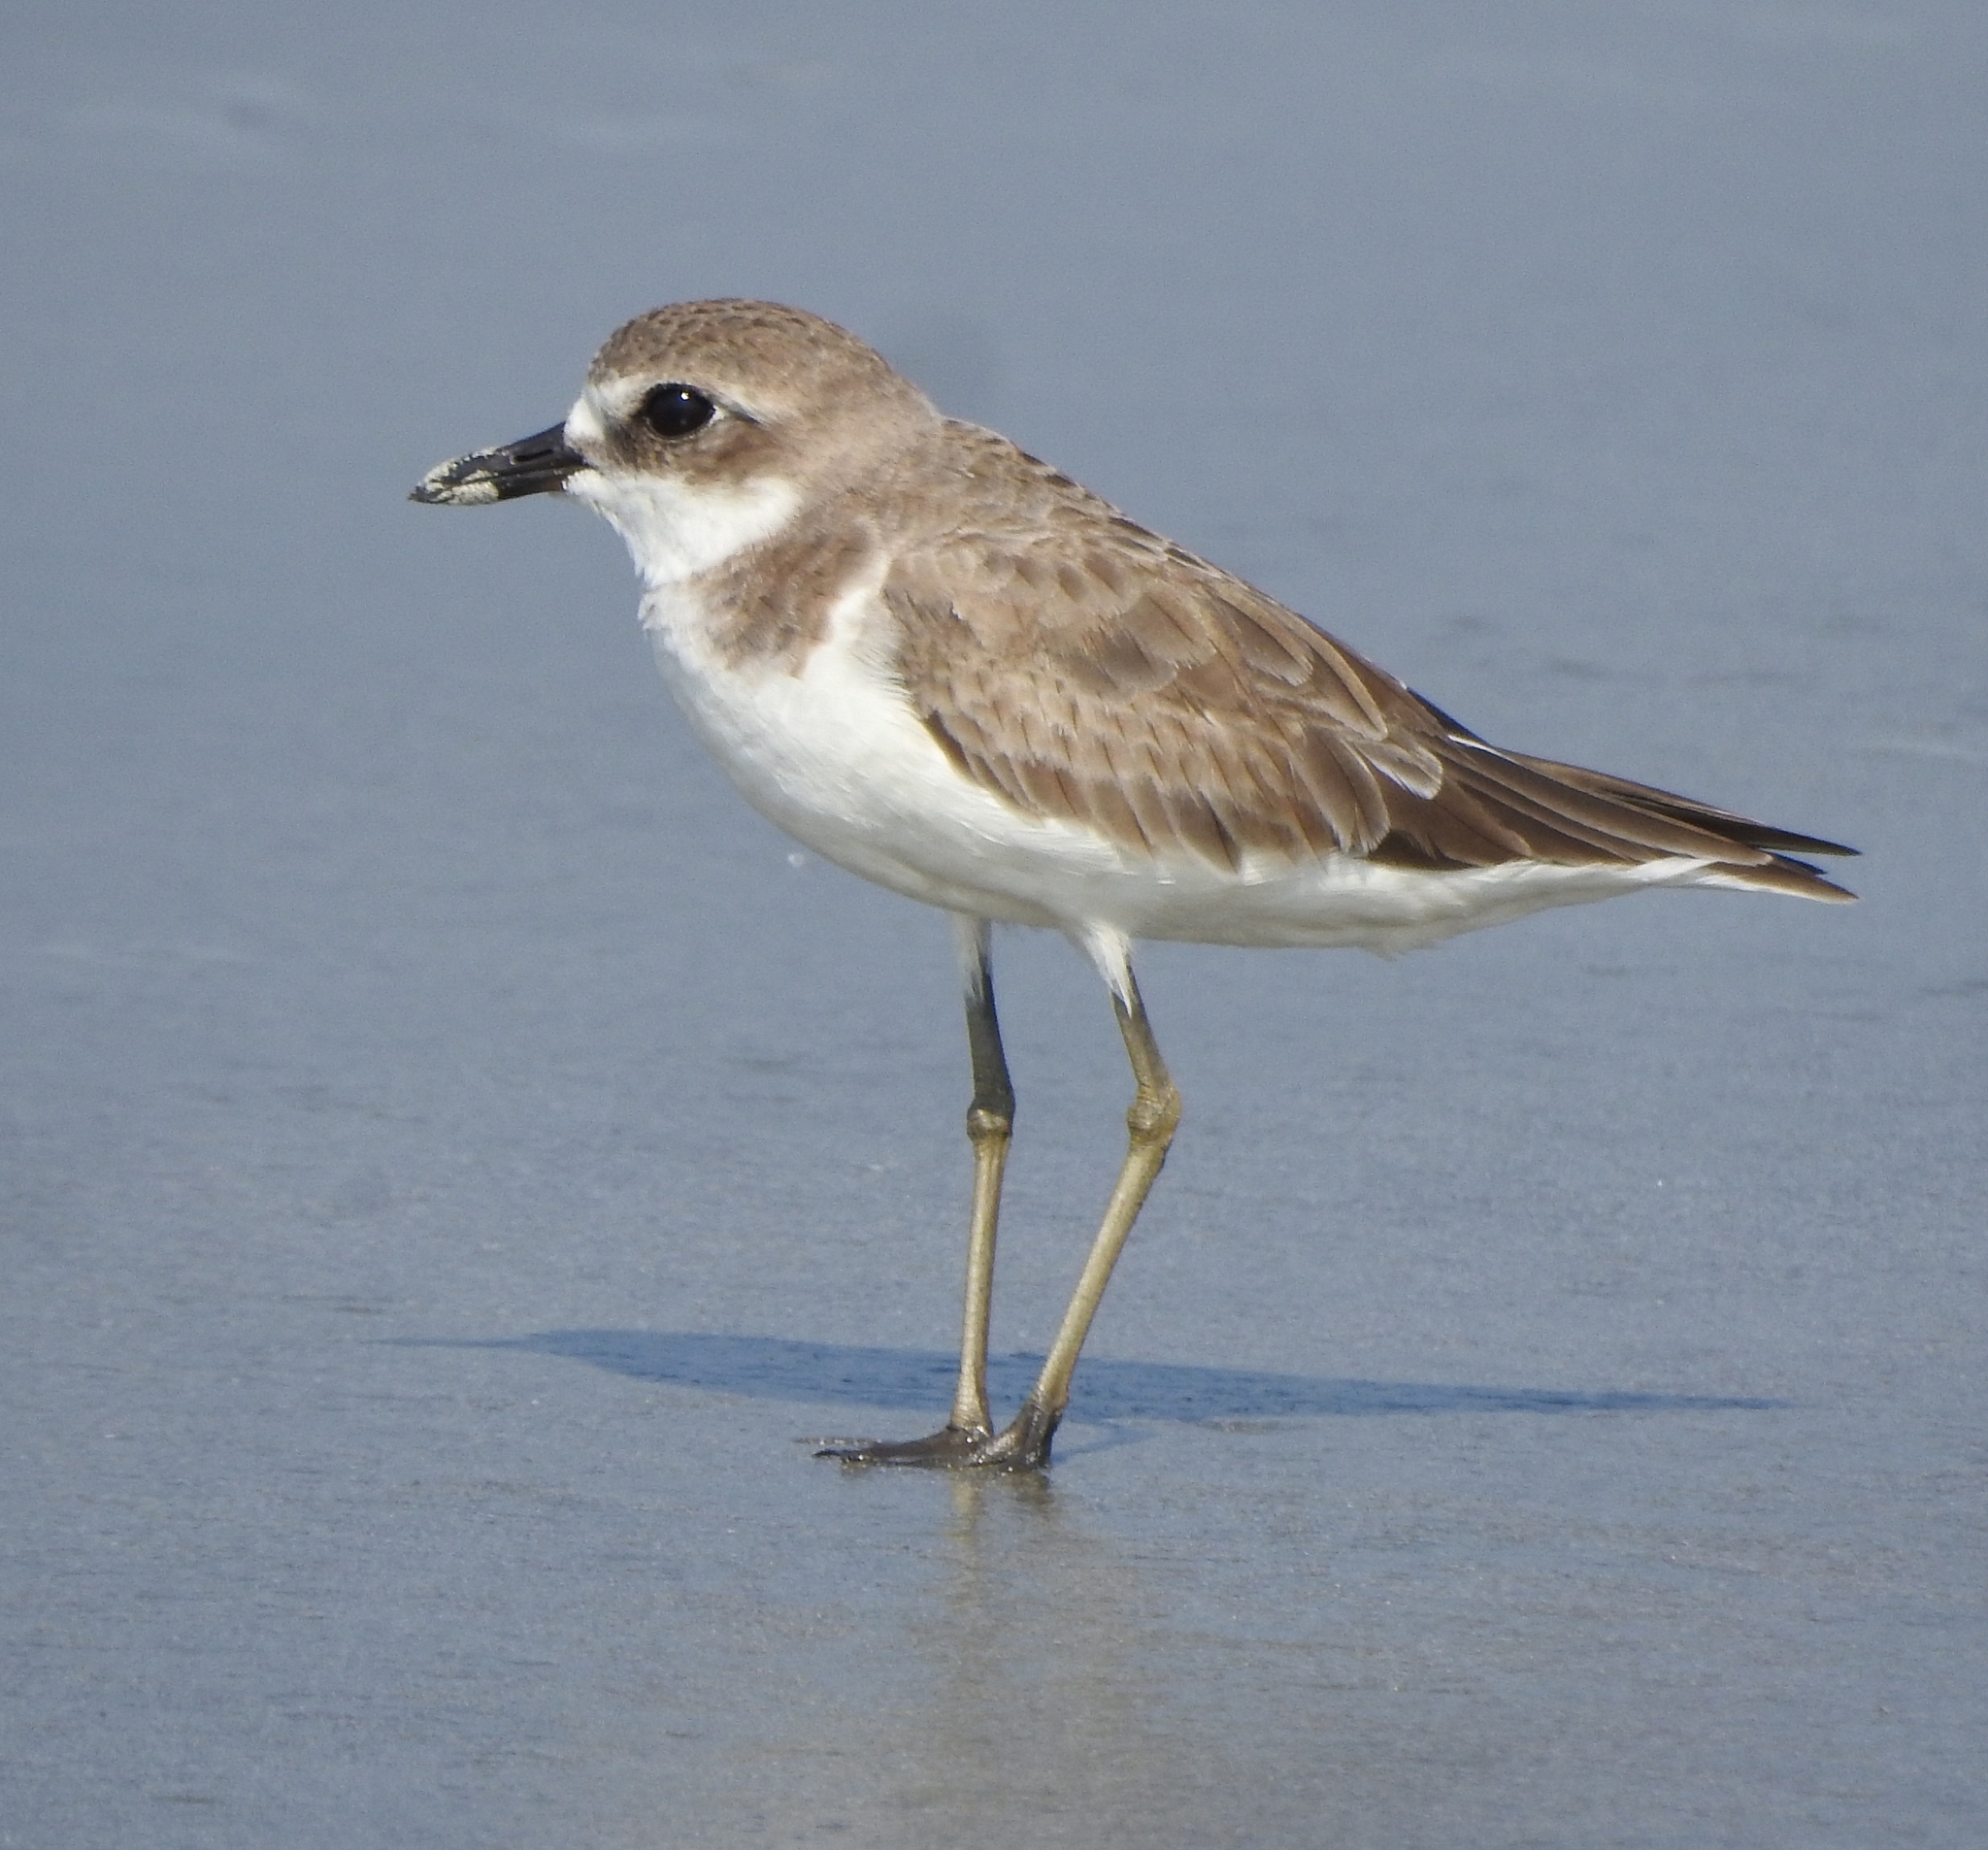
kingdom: Animalia
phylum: Chordata
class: Aves
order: Charadriiformes
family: Charadriidae
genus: Charadrius
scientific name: Charadrius leschenaultii
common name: Greater sand plover
